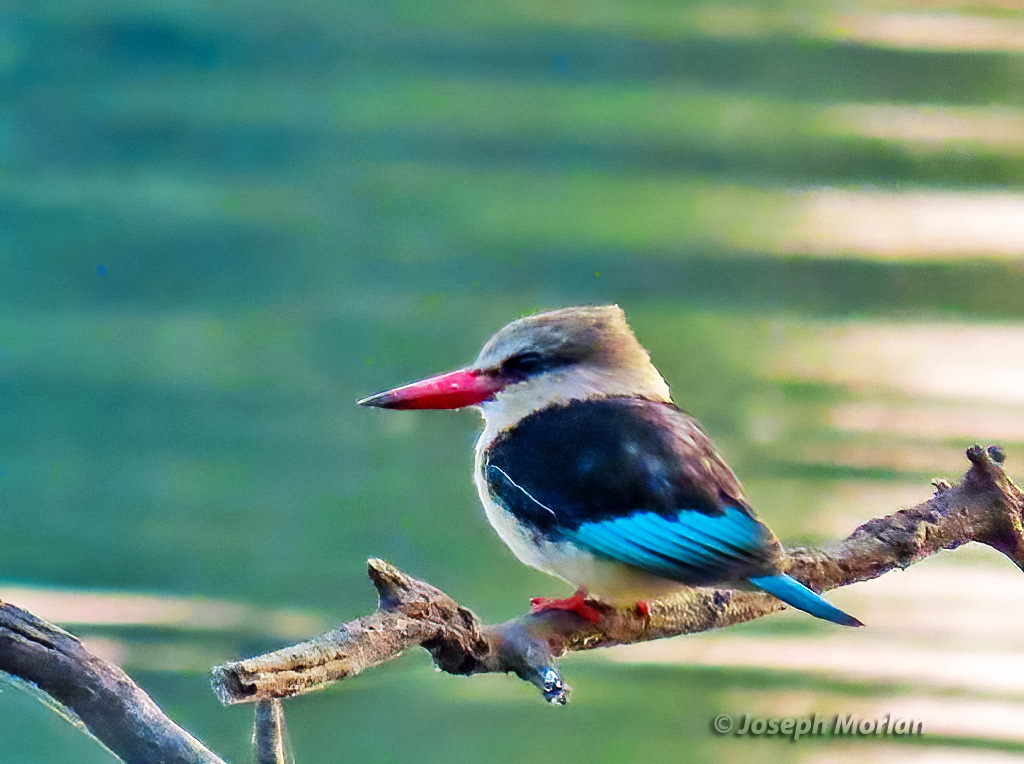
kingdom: Animalia
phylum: Chordata
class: Aves
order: Coraciiformes
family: Alcedinidae
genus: Halcyon
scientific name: Halcyon albiventris
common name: Brown-hooded kingfisher
